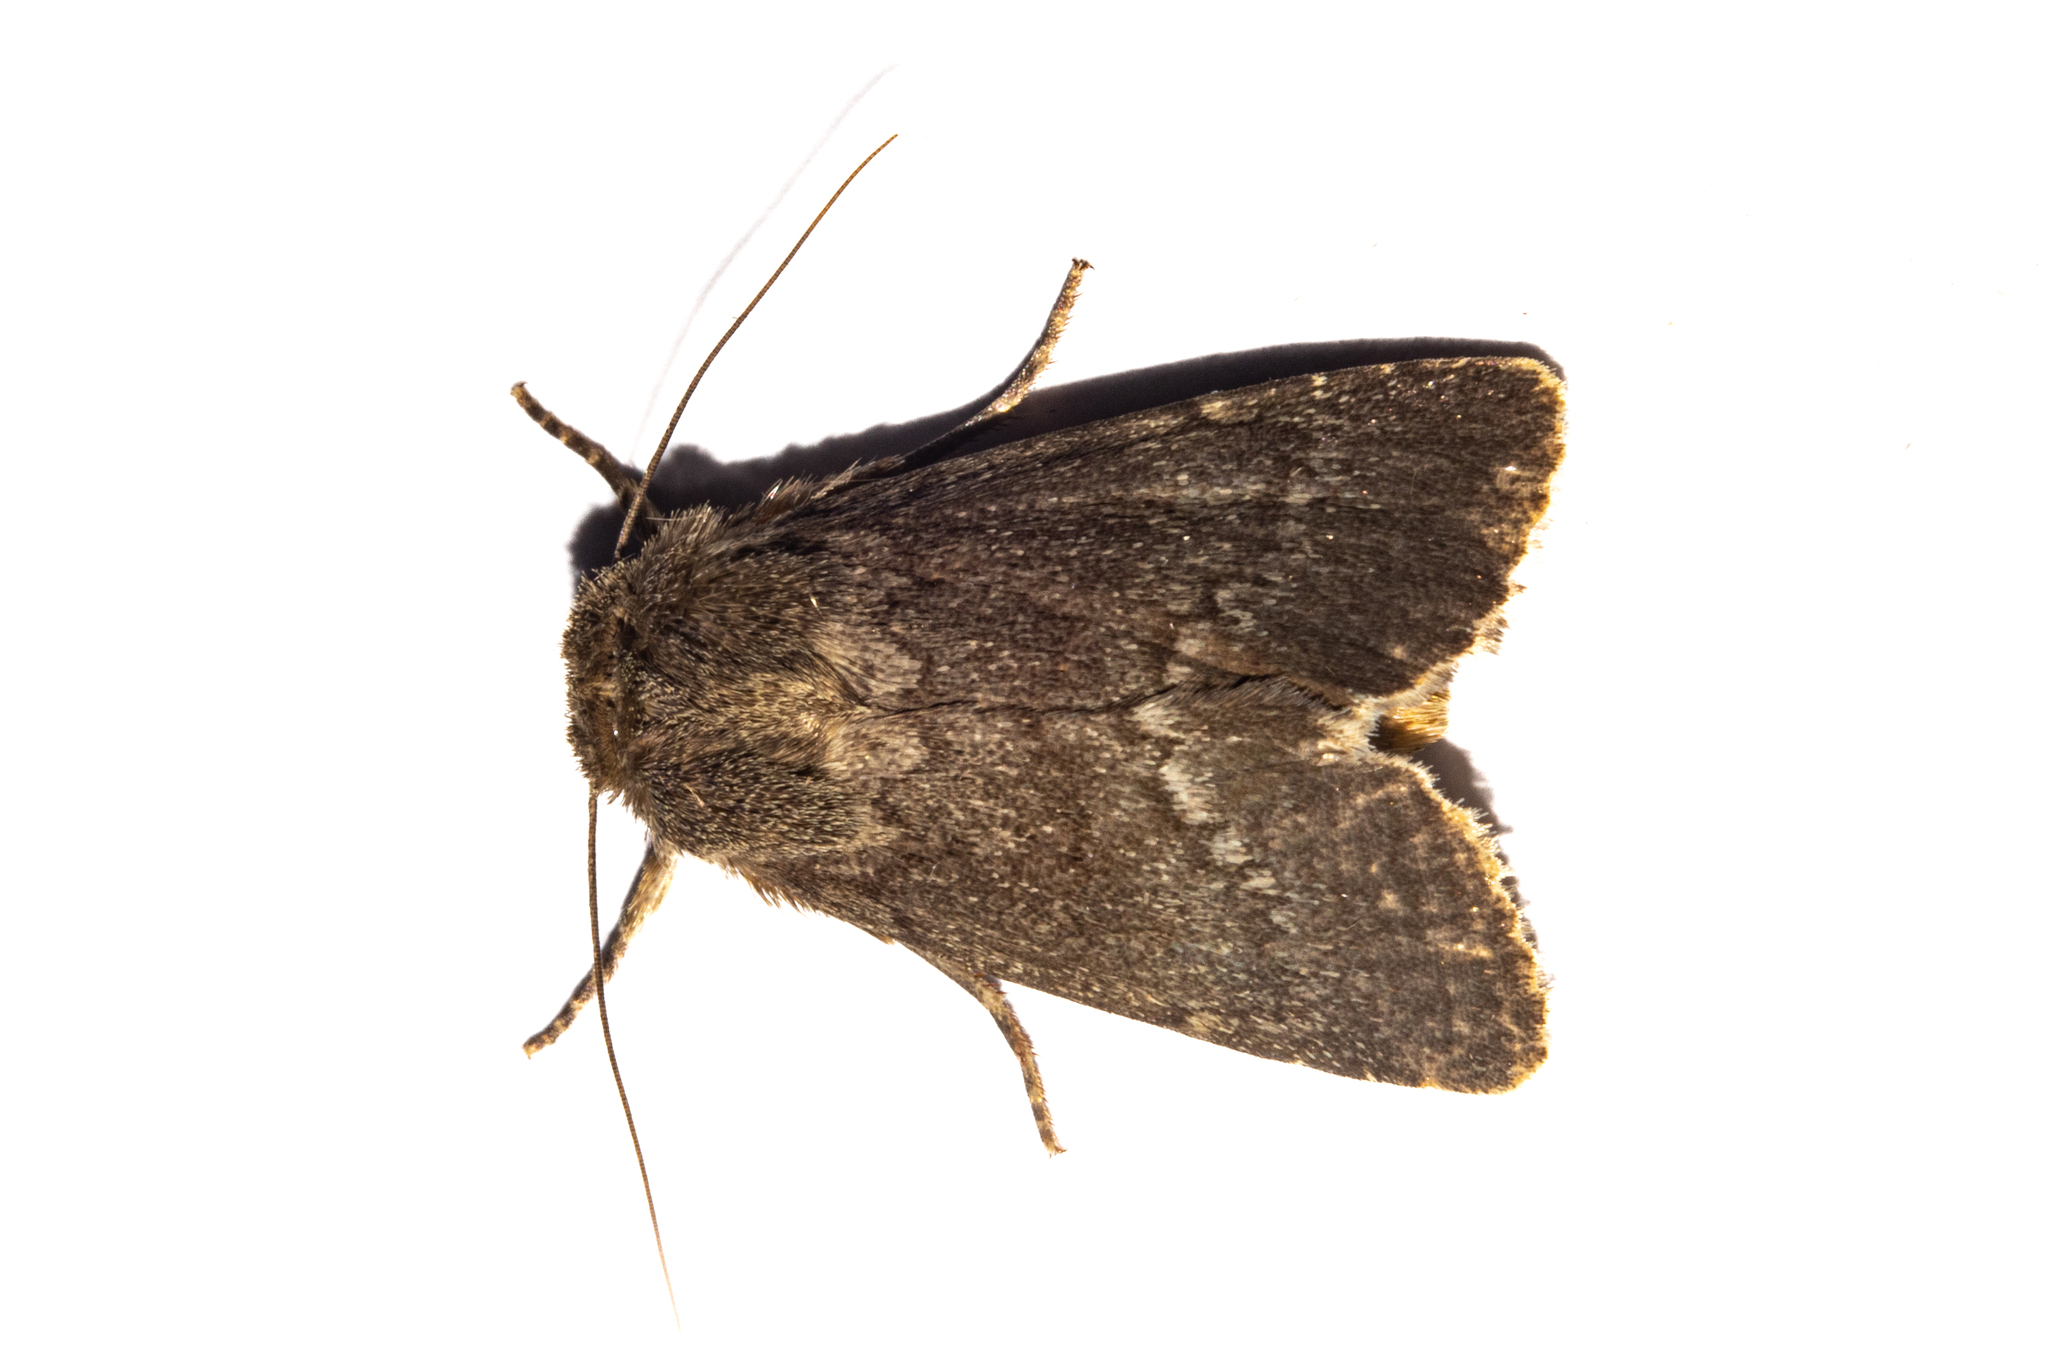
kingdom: Animalia
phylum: Arthropoda
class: Insecta
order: Lepidoptera
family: Noctuidae
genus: Bityla
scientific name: Bityla sericea
